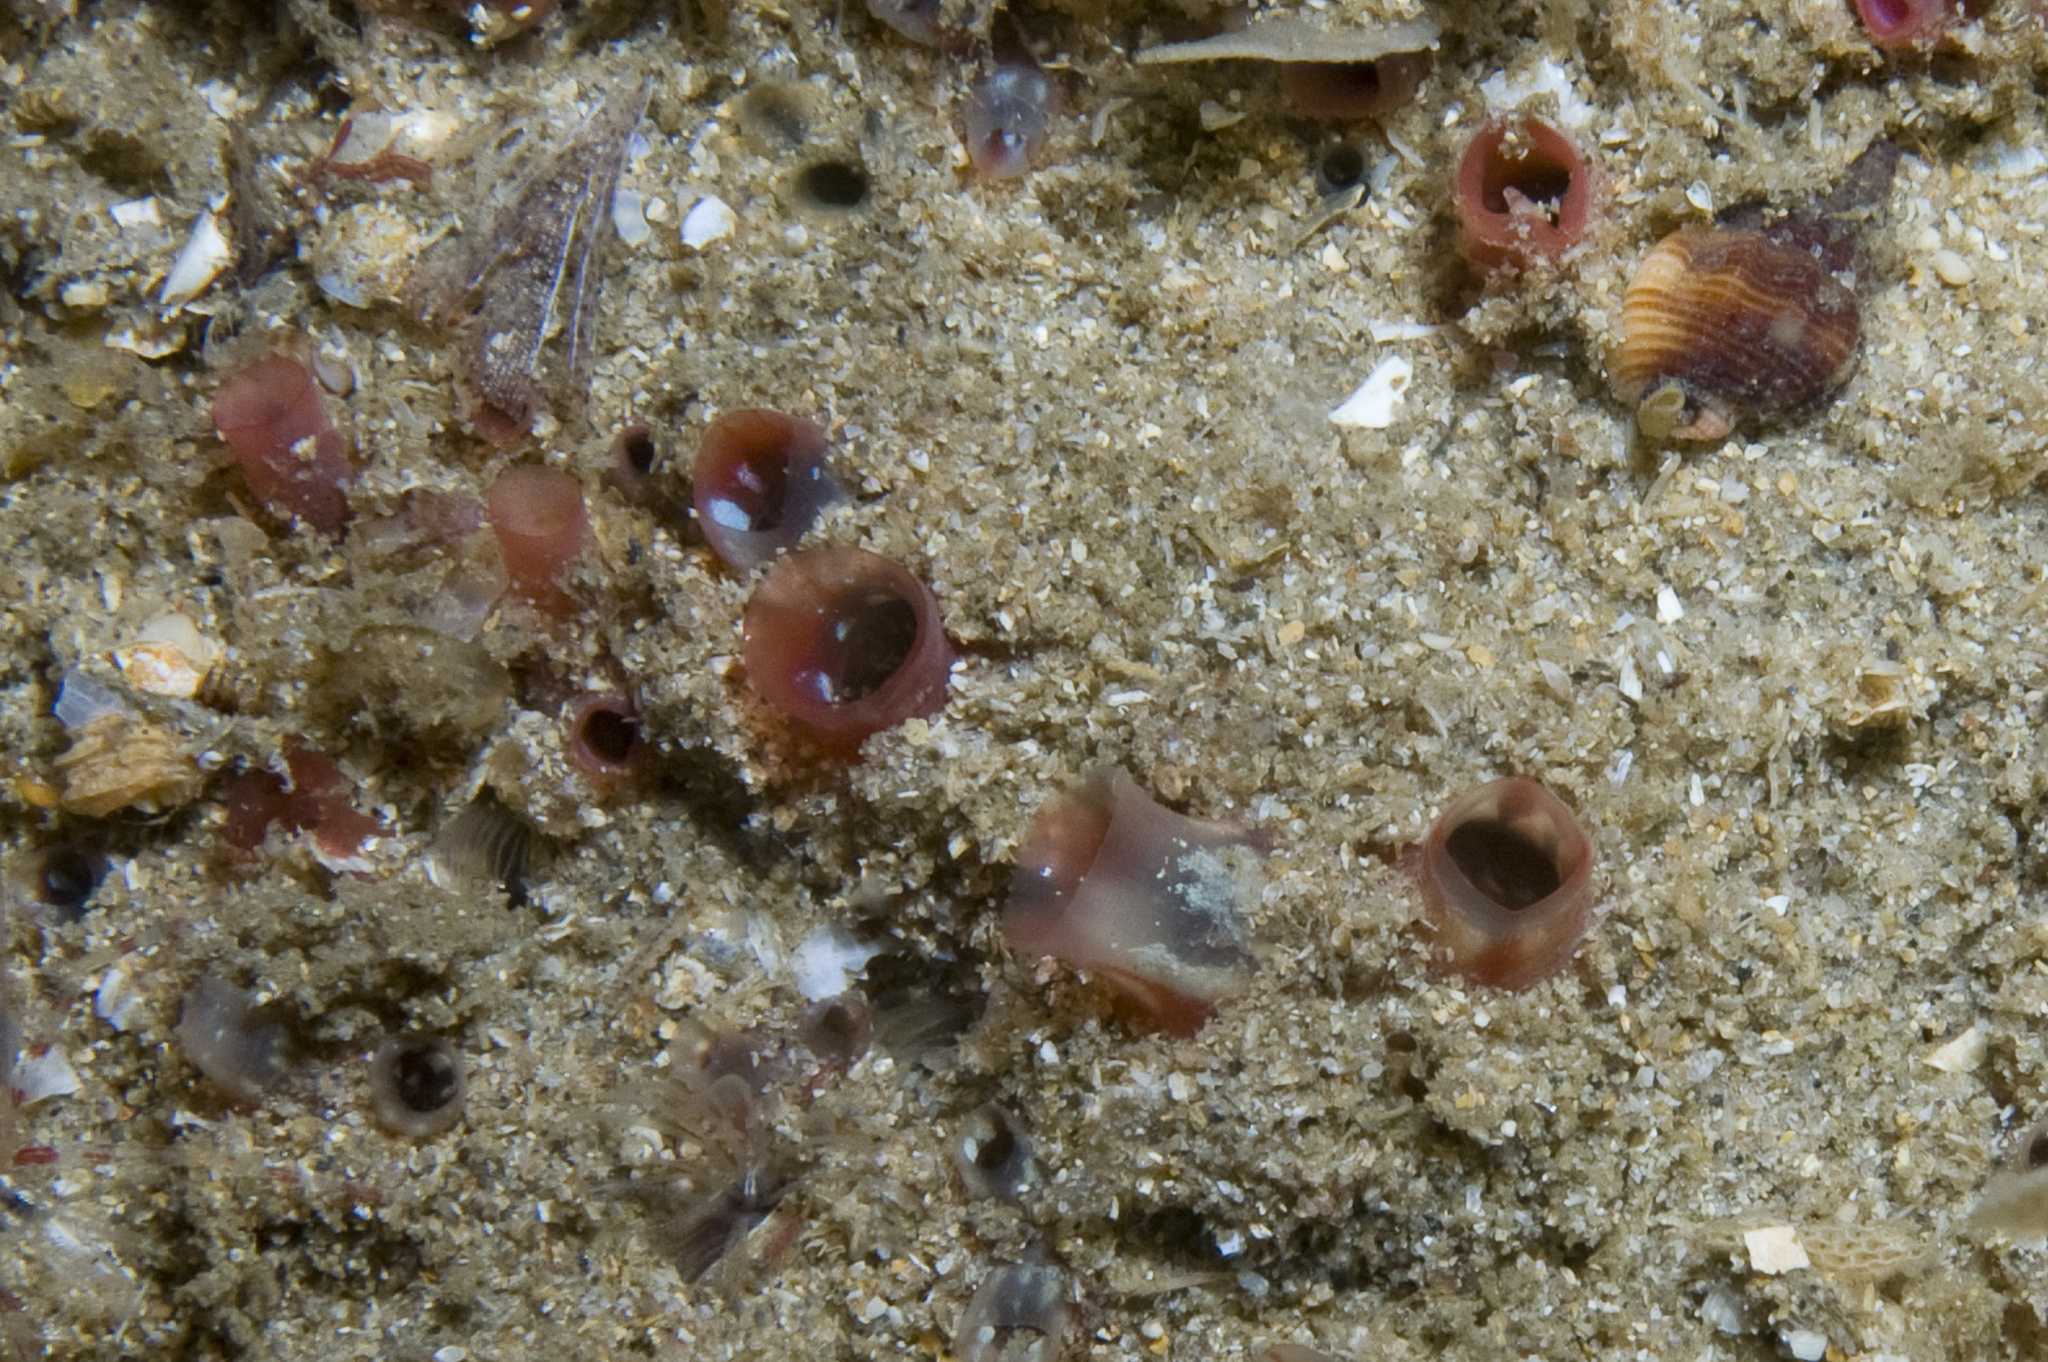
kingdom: Animalia
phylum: Chordata
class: Ascidiacea
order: Stolidobranchia
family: Styelidae
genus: Polycarpa
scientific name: Polycarpa fibrosa
